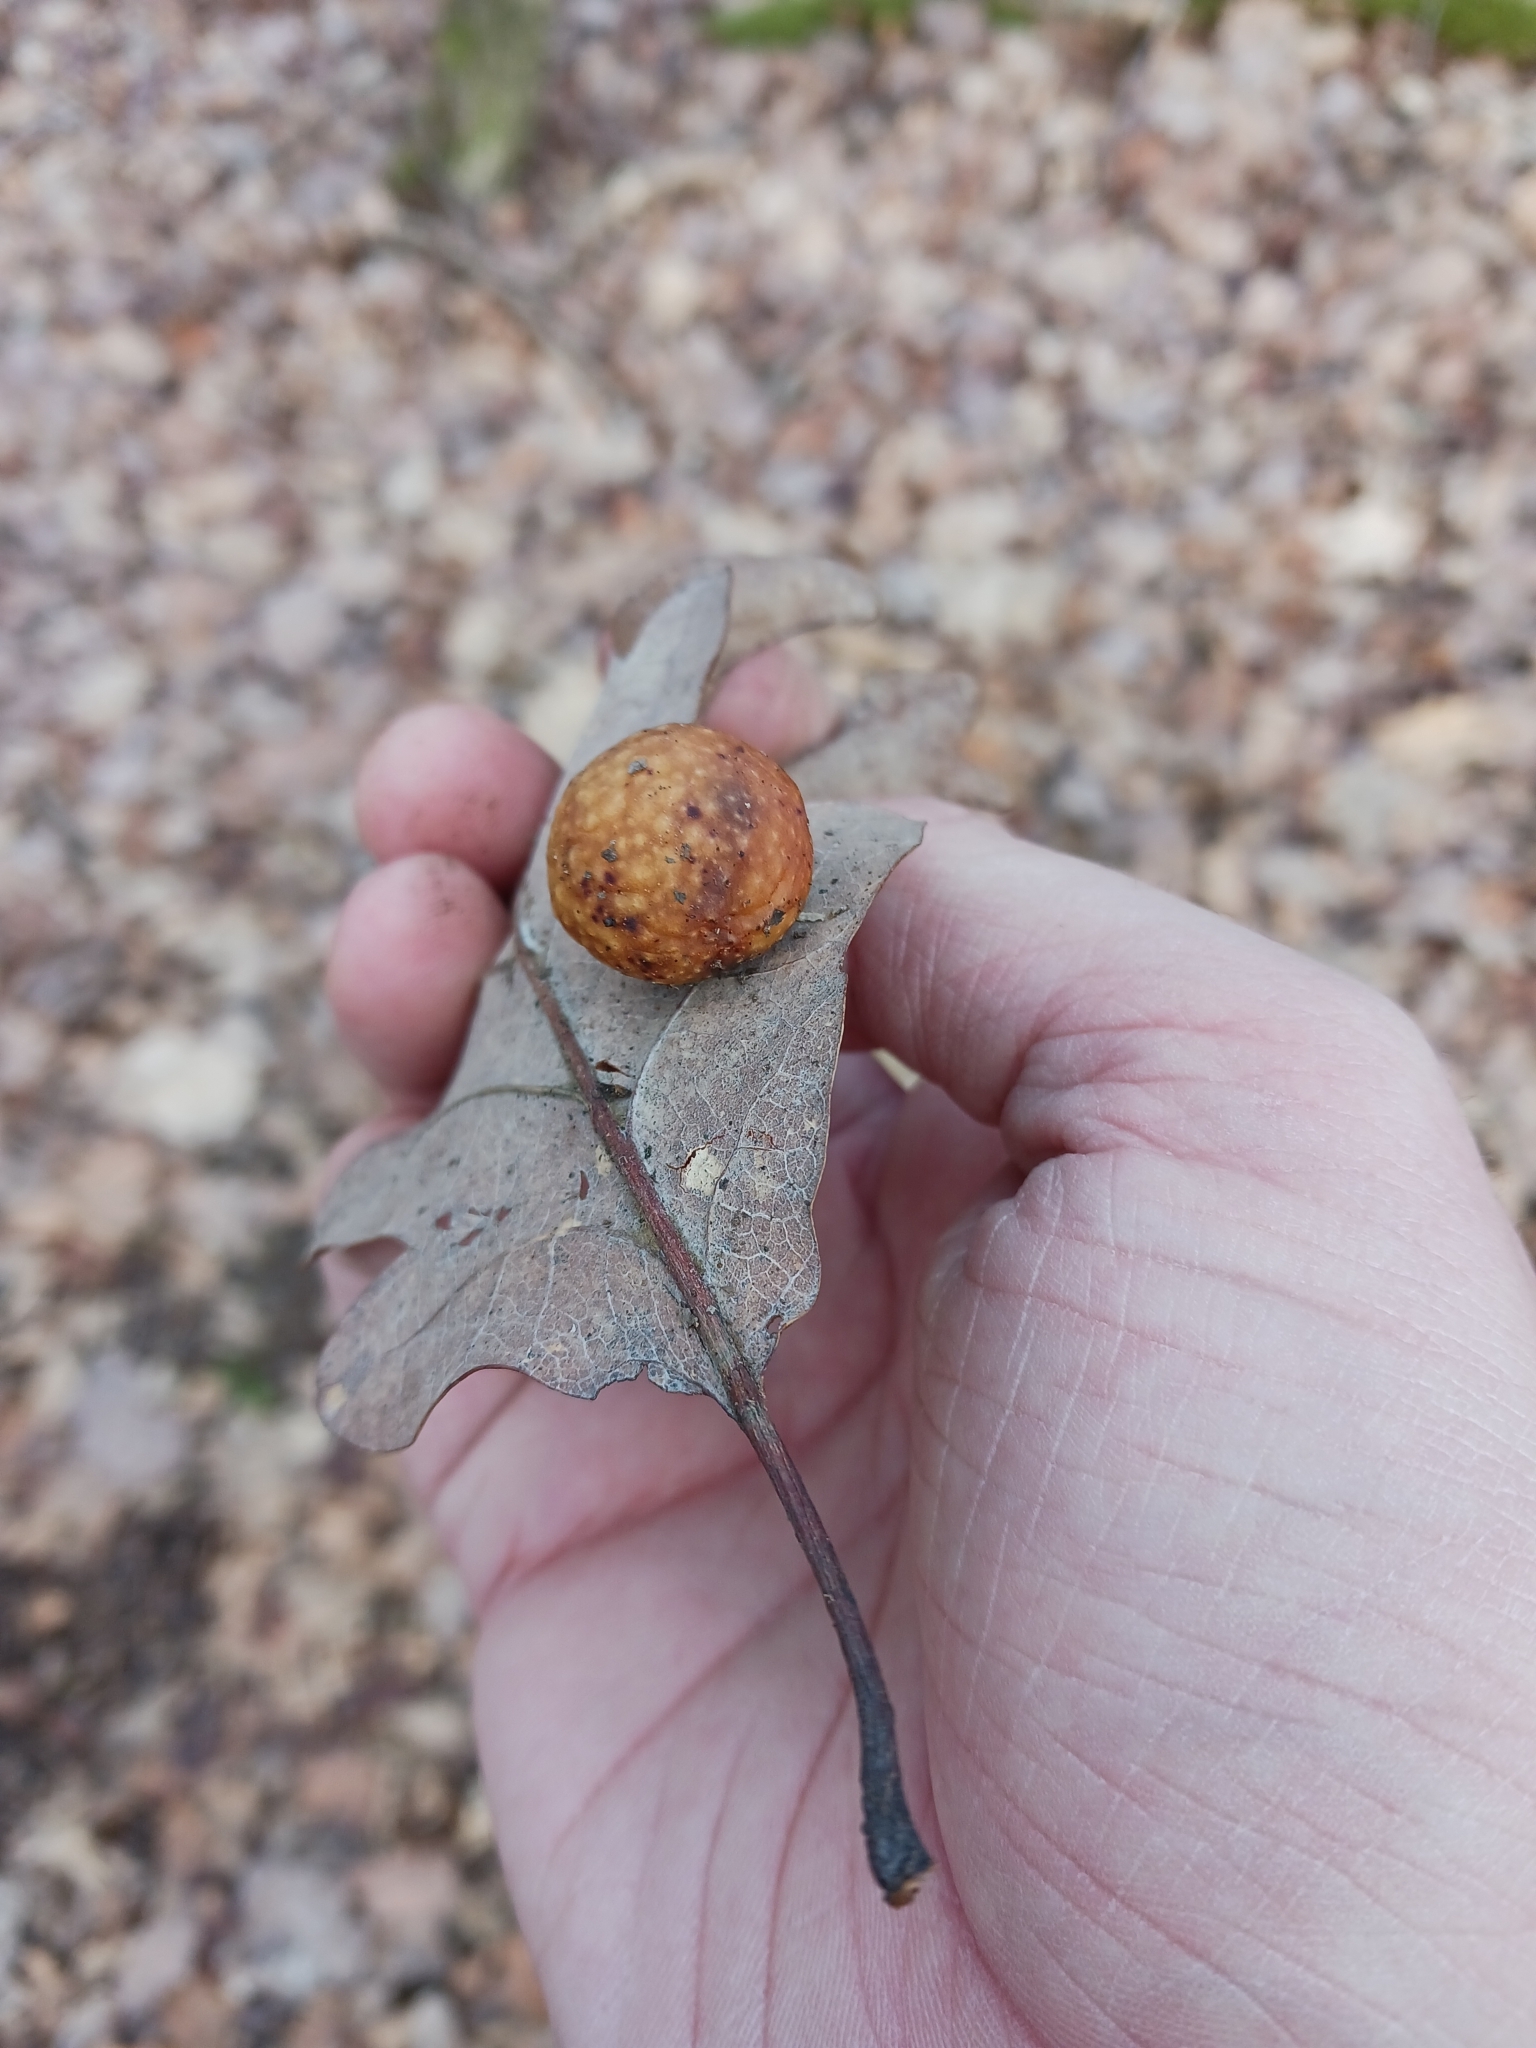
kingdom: Animalia
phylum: Arthropoda
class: Insecta
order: Hymenoptera
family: Cynipidae
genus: Cynips
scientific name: Cynips quercusfolii
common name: Cherry gall
